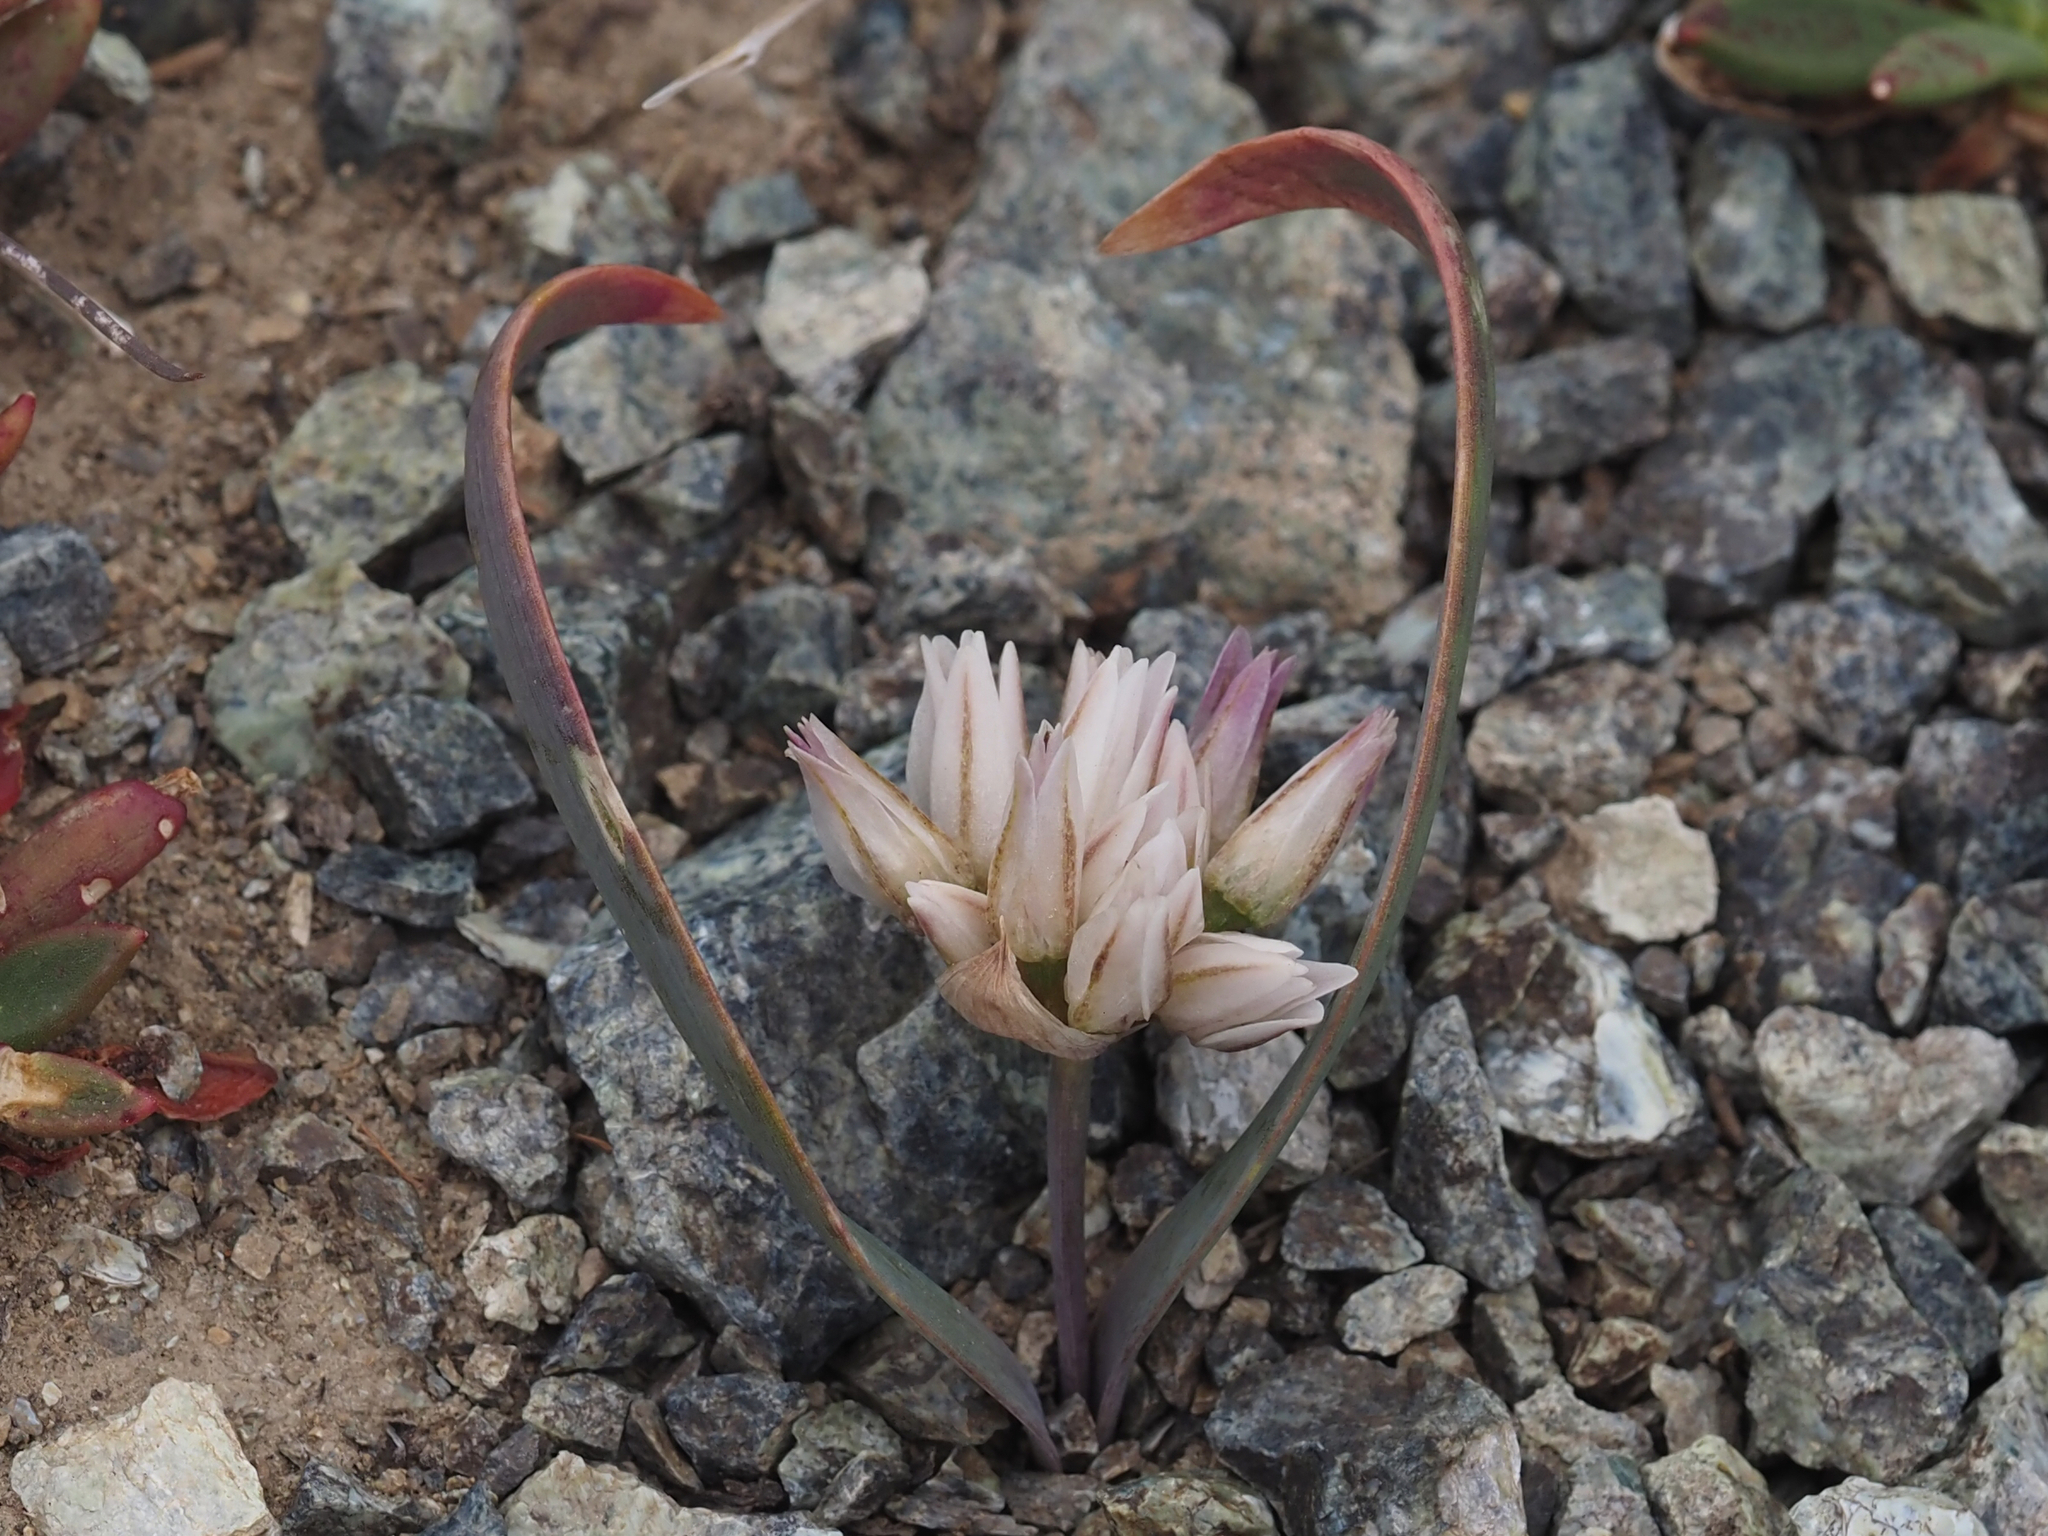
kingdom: Plantae
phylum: Tracheophyta
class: Liliopsida
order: Asparagales
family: Amaryllidaceae
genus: Allium
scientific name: Allium crenulatum
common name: Olympic onion
